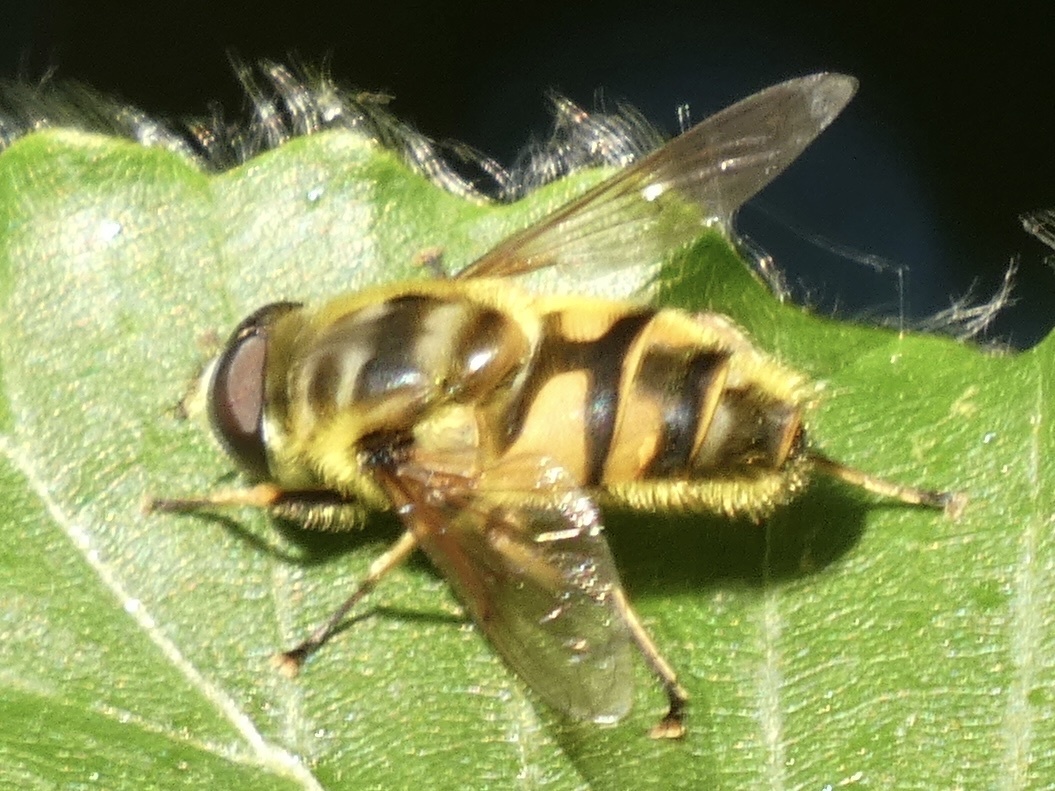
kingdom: Animalia
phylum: Arthropoda
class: Insecta
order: Diptera
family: Syrphidae
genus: Myathropa
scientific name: Myathropa florea
